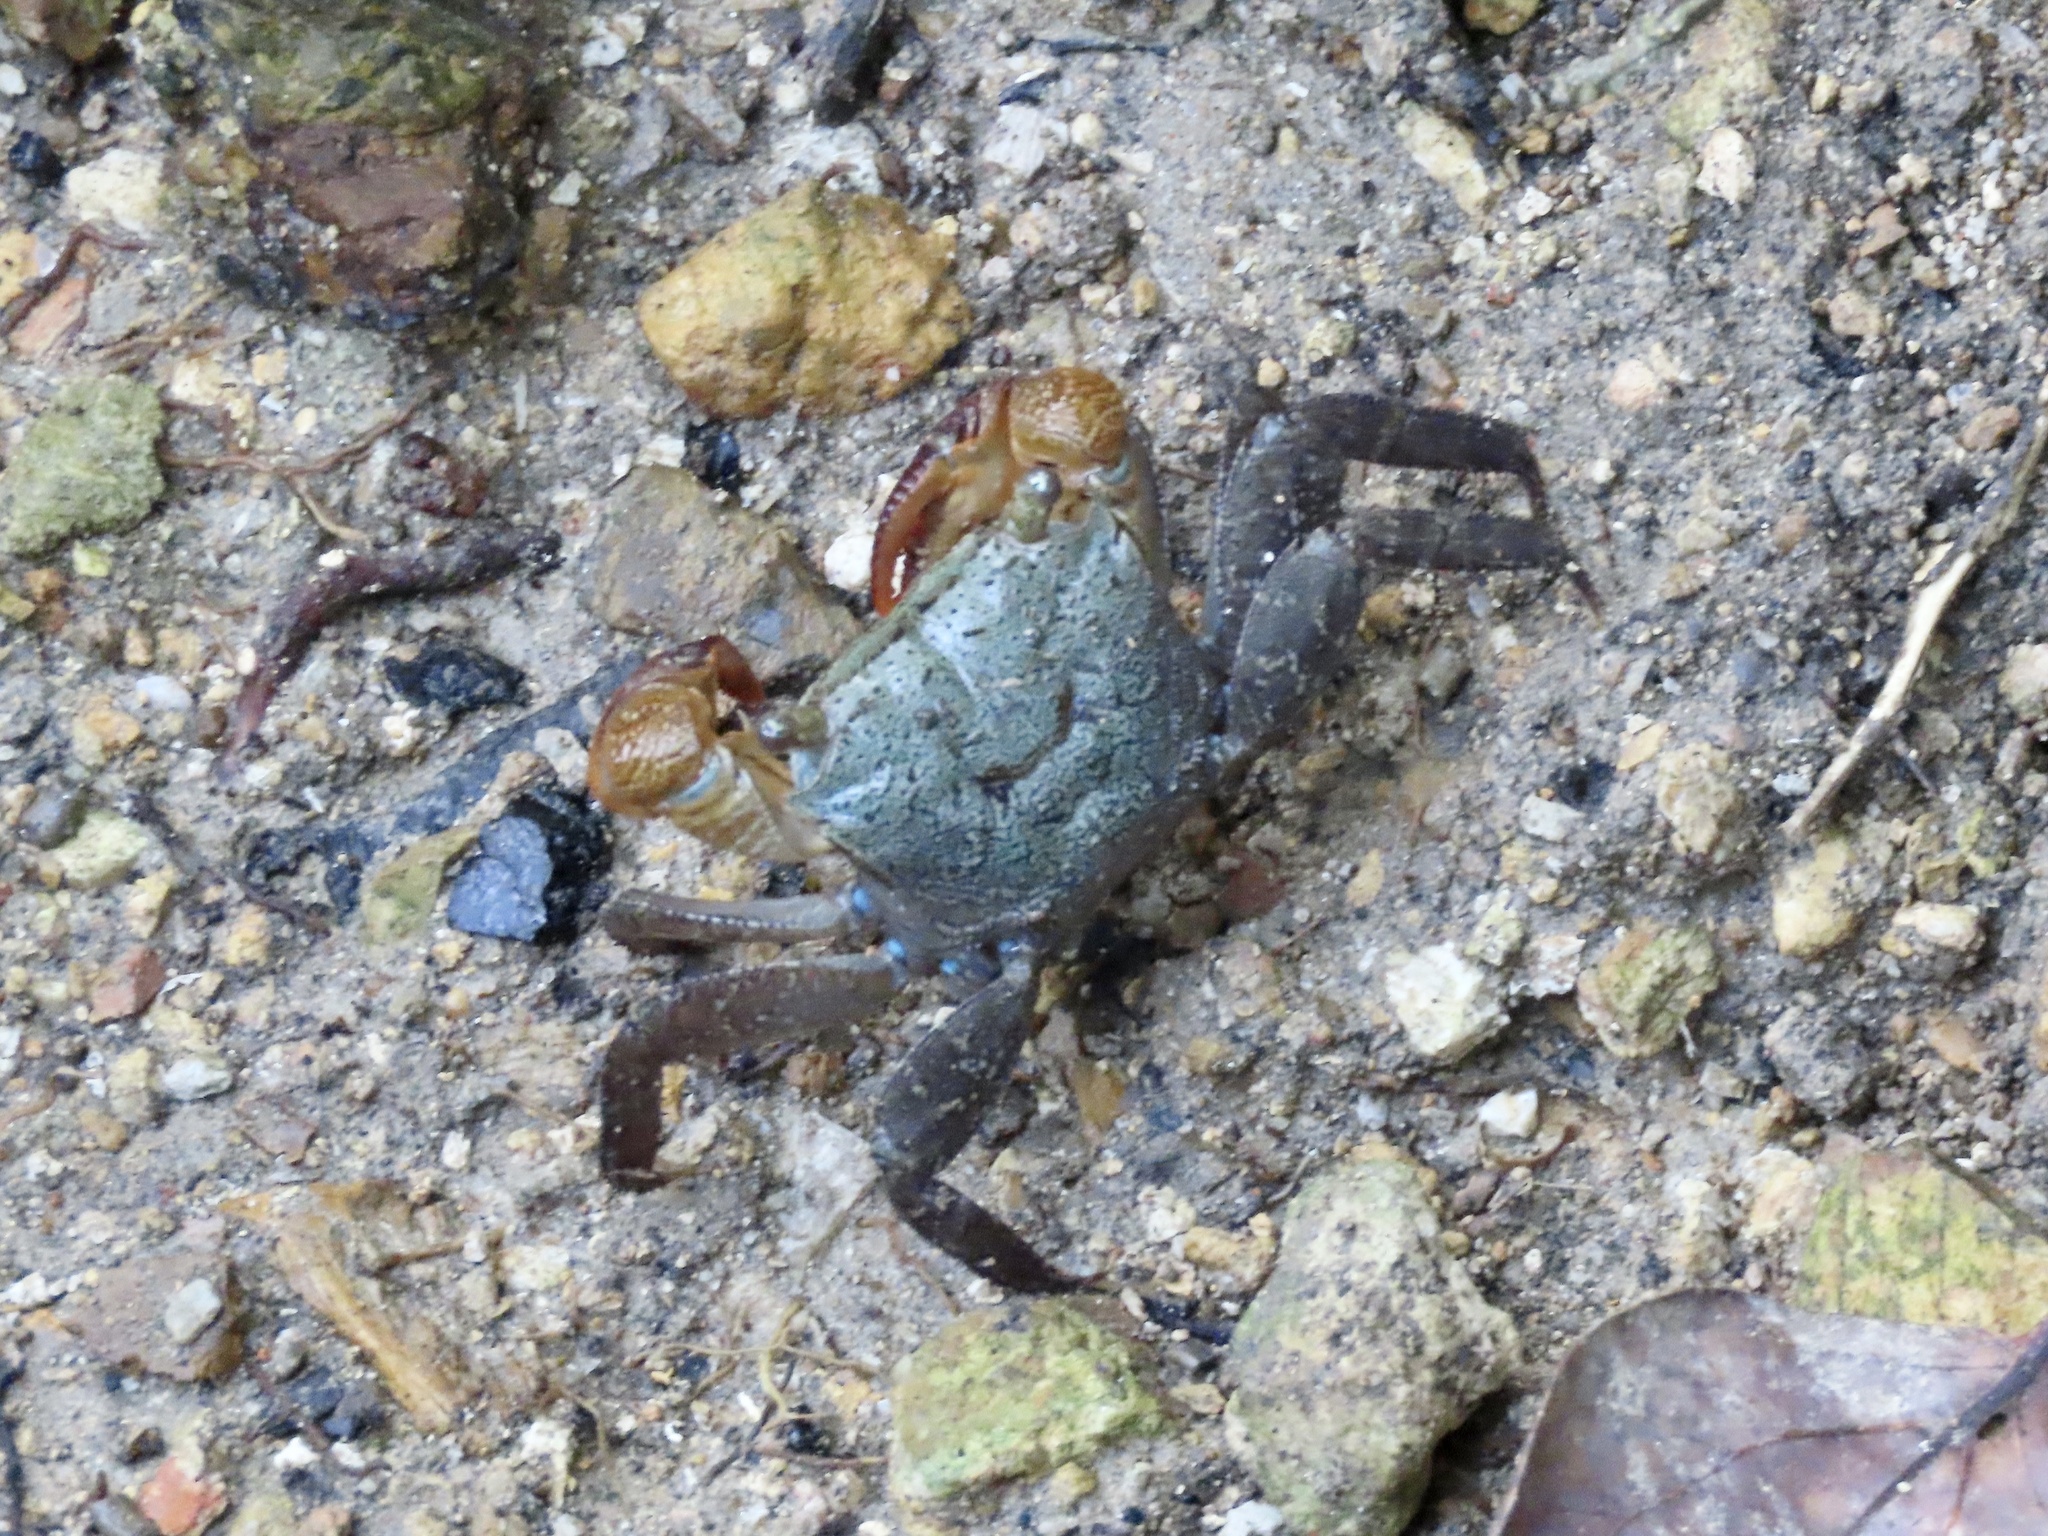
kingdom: Animalia
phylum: Arthropoda
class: Malacostraca
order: Decapoda
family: Sesarmidae
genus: Parasesarma
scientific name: Parasesarma continentale
